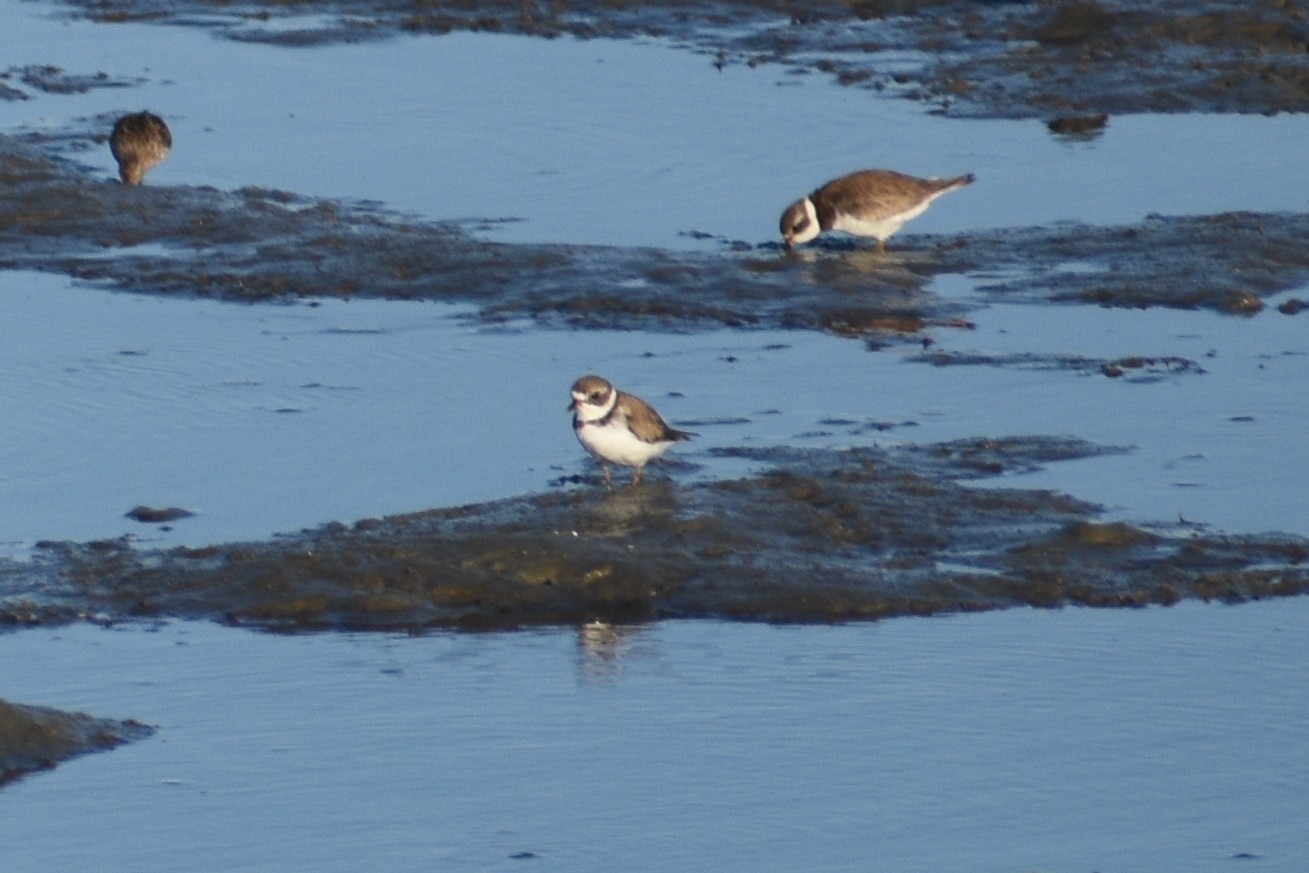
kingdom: Animalia
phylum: Chordata
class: Aves
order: Charadriiformes
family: Charadriidae
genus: Charadrius
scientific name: Charadrius semipalmatus
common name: Semipalmated plover
